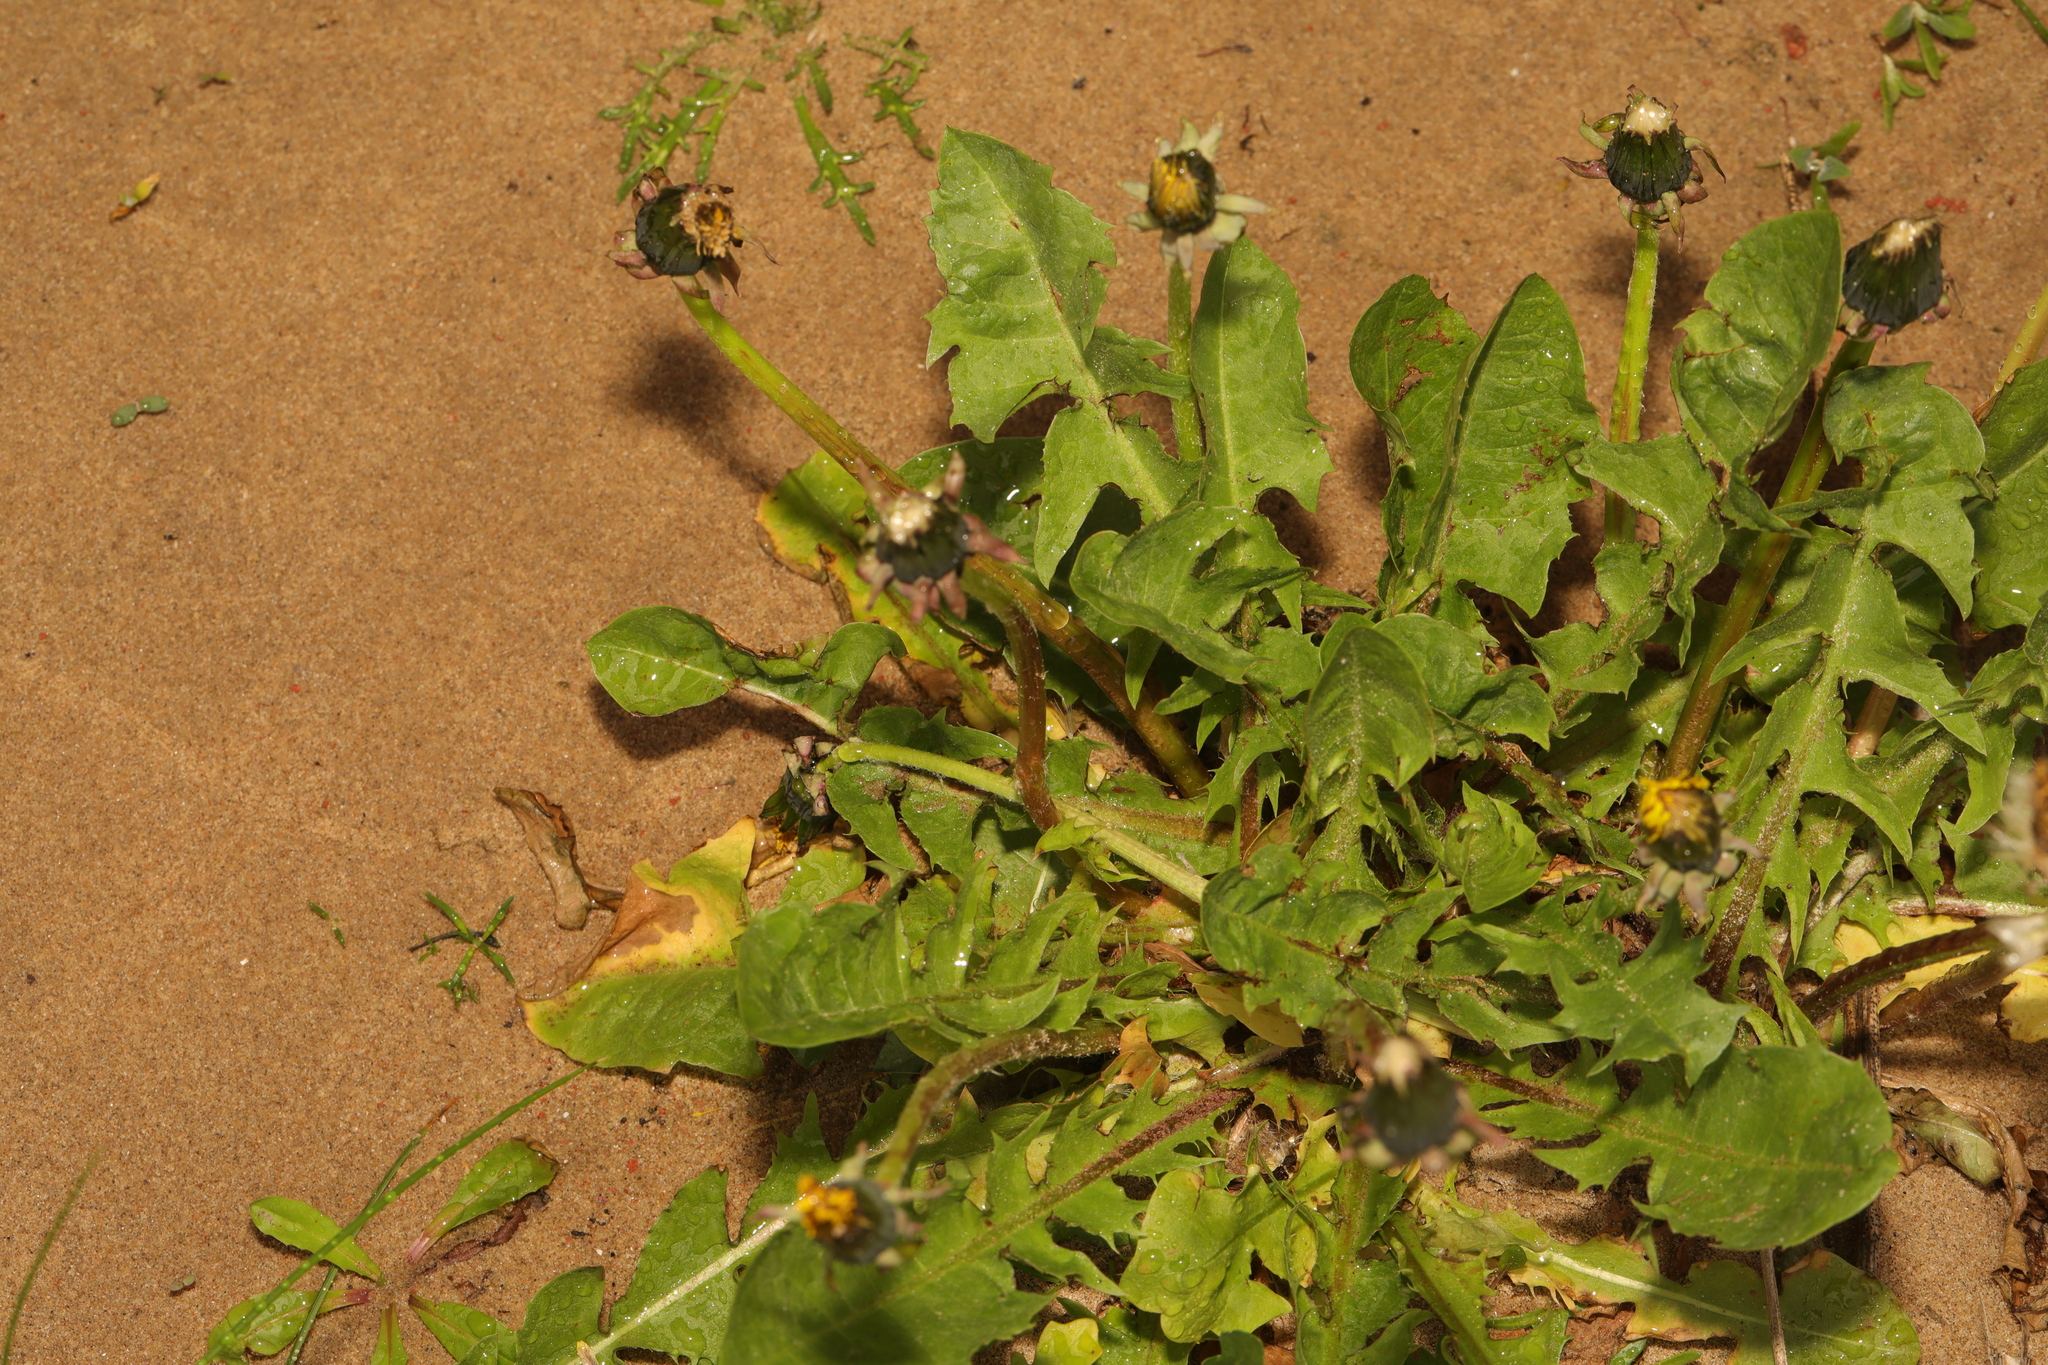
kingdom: Plantae
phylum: Tracheophyta
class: Magnoliopsida
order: Asterales
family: Asteraceae
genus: Taraxacum
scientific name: Taraxacum officinale
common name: Common dandelion
